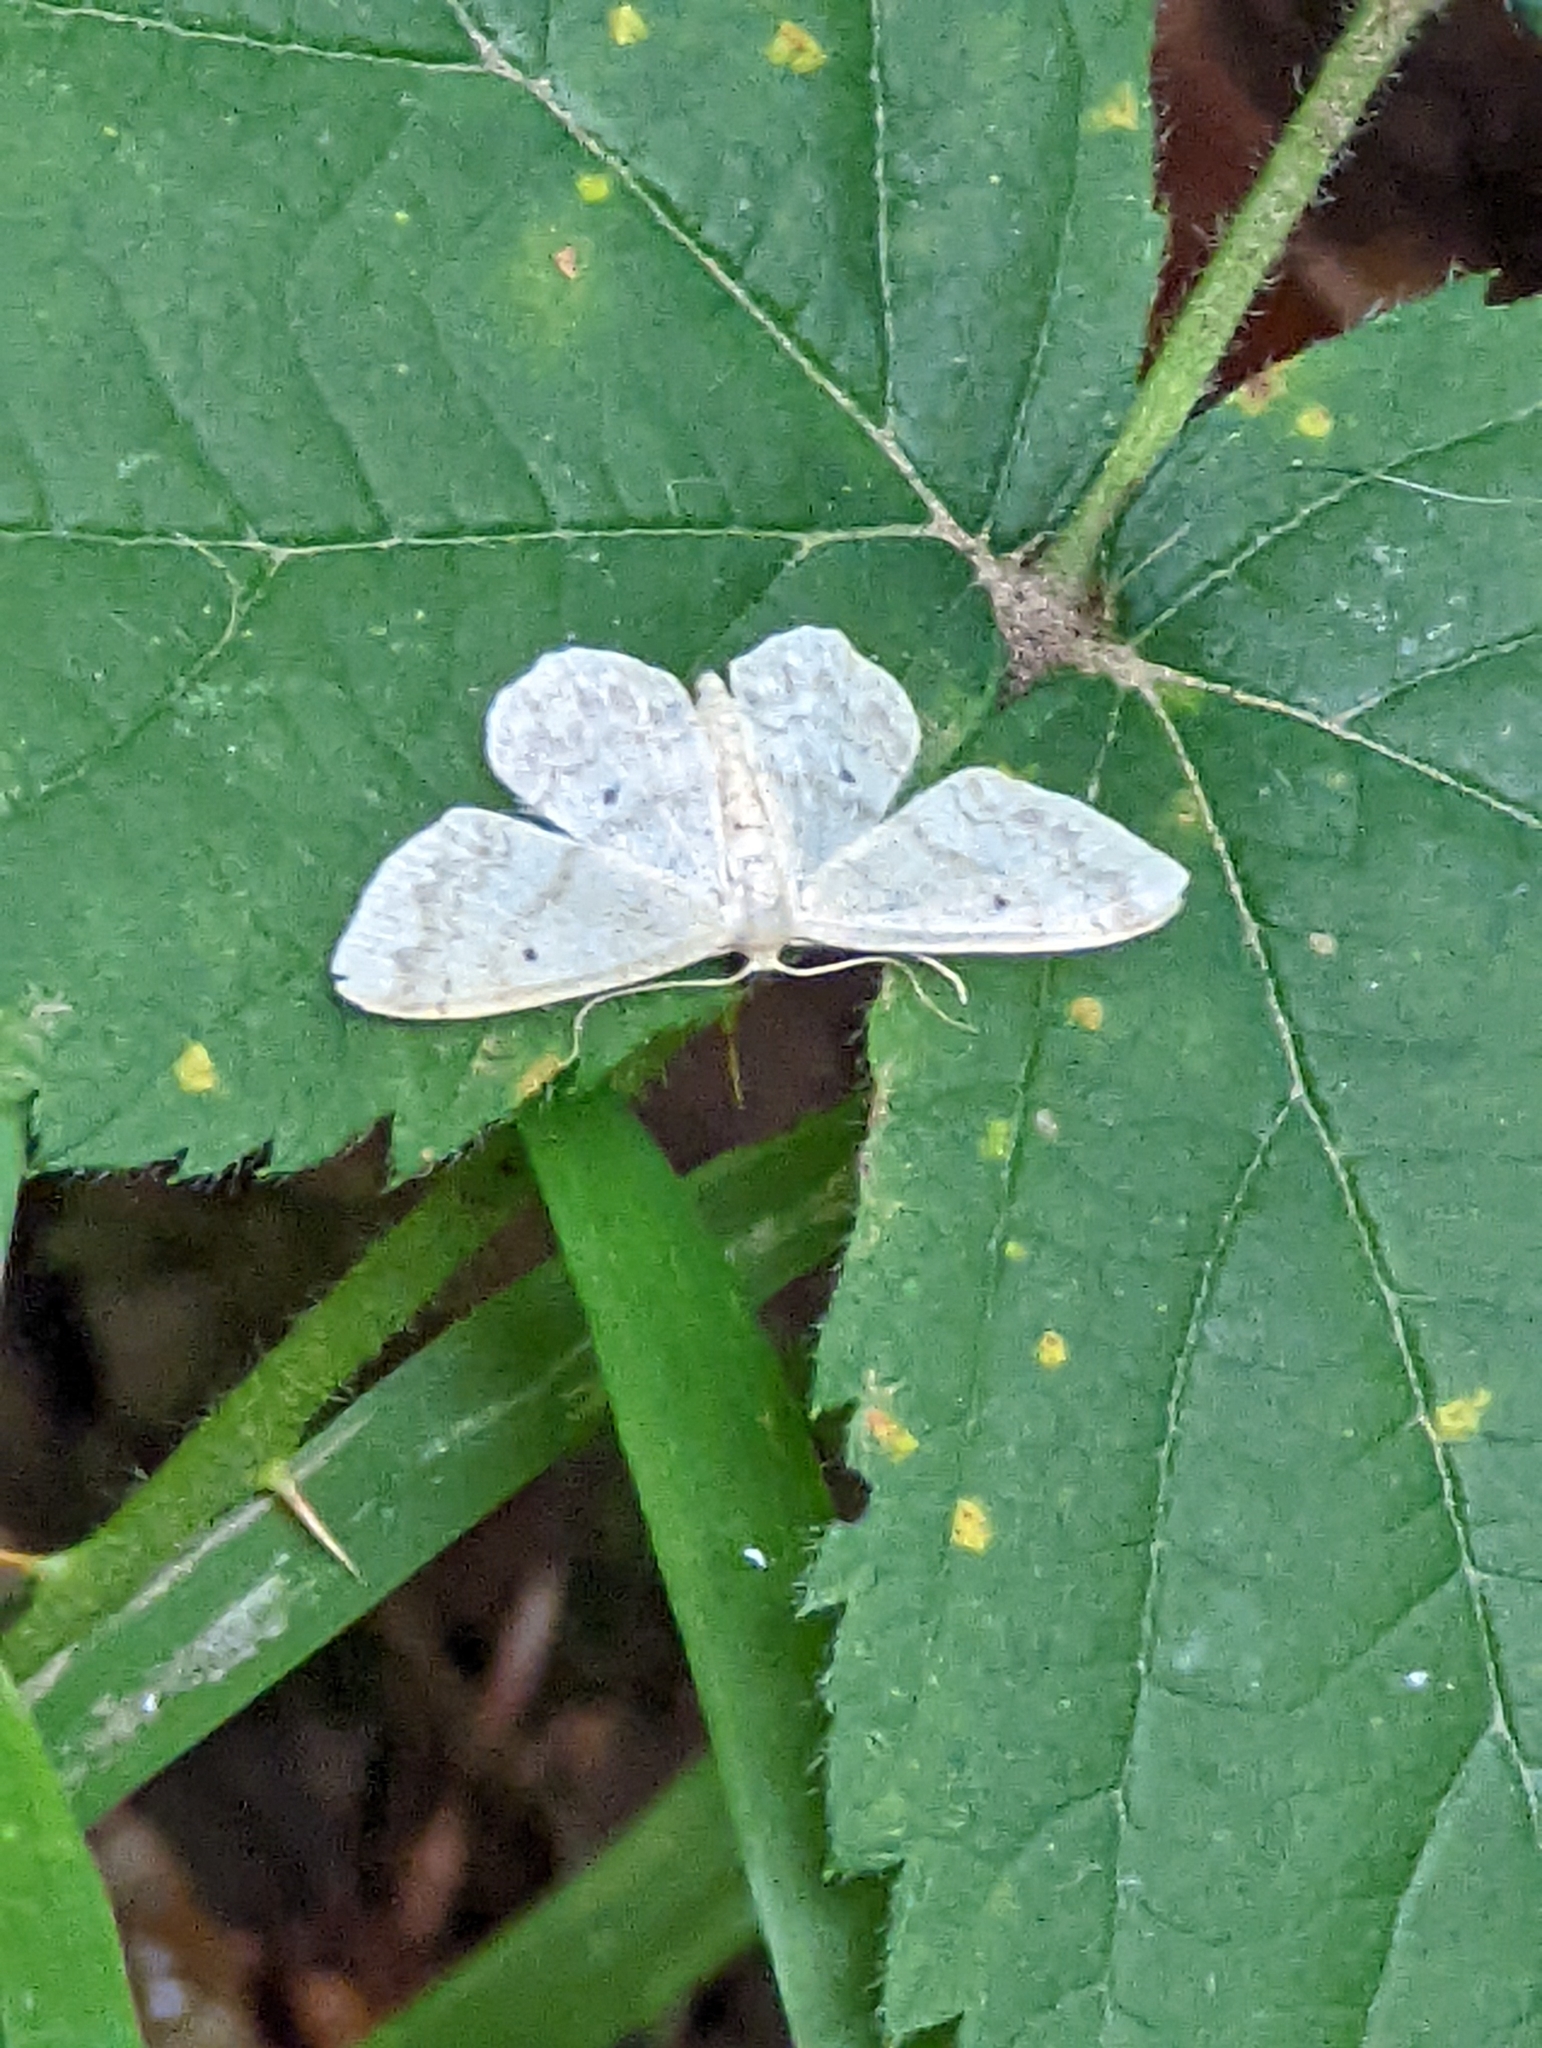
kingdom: Animalia
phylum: Arthropoda
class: Insecta
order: Lepidoptera
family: Geometridae
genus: Idaea
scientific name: Idaea biselata
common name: Small fan-footed wave
